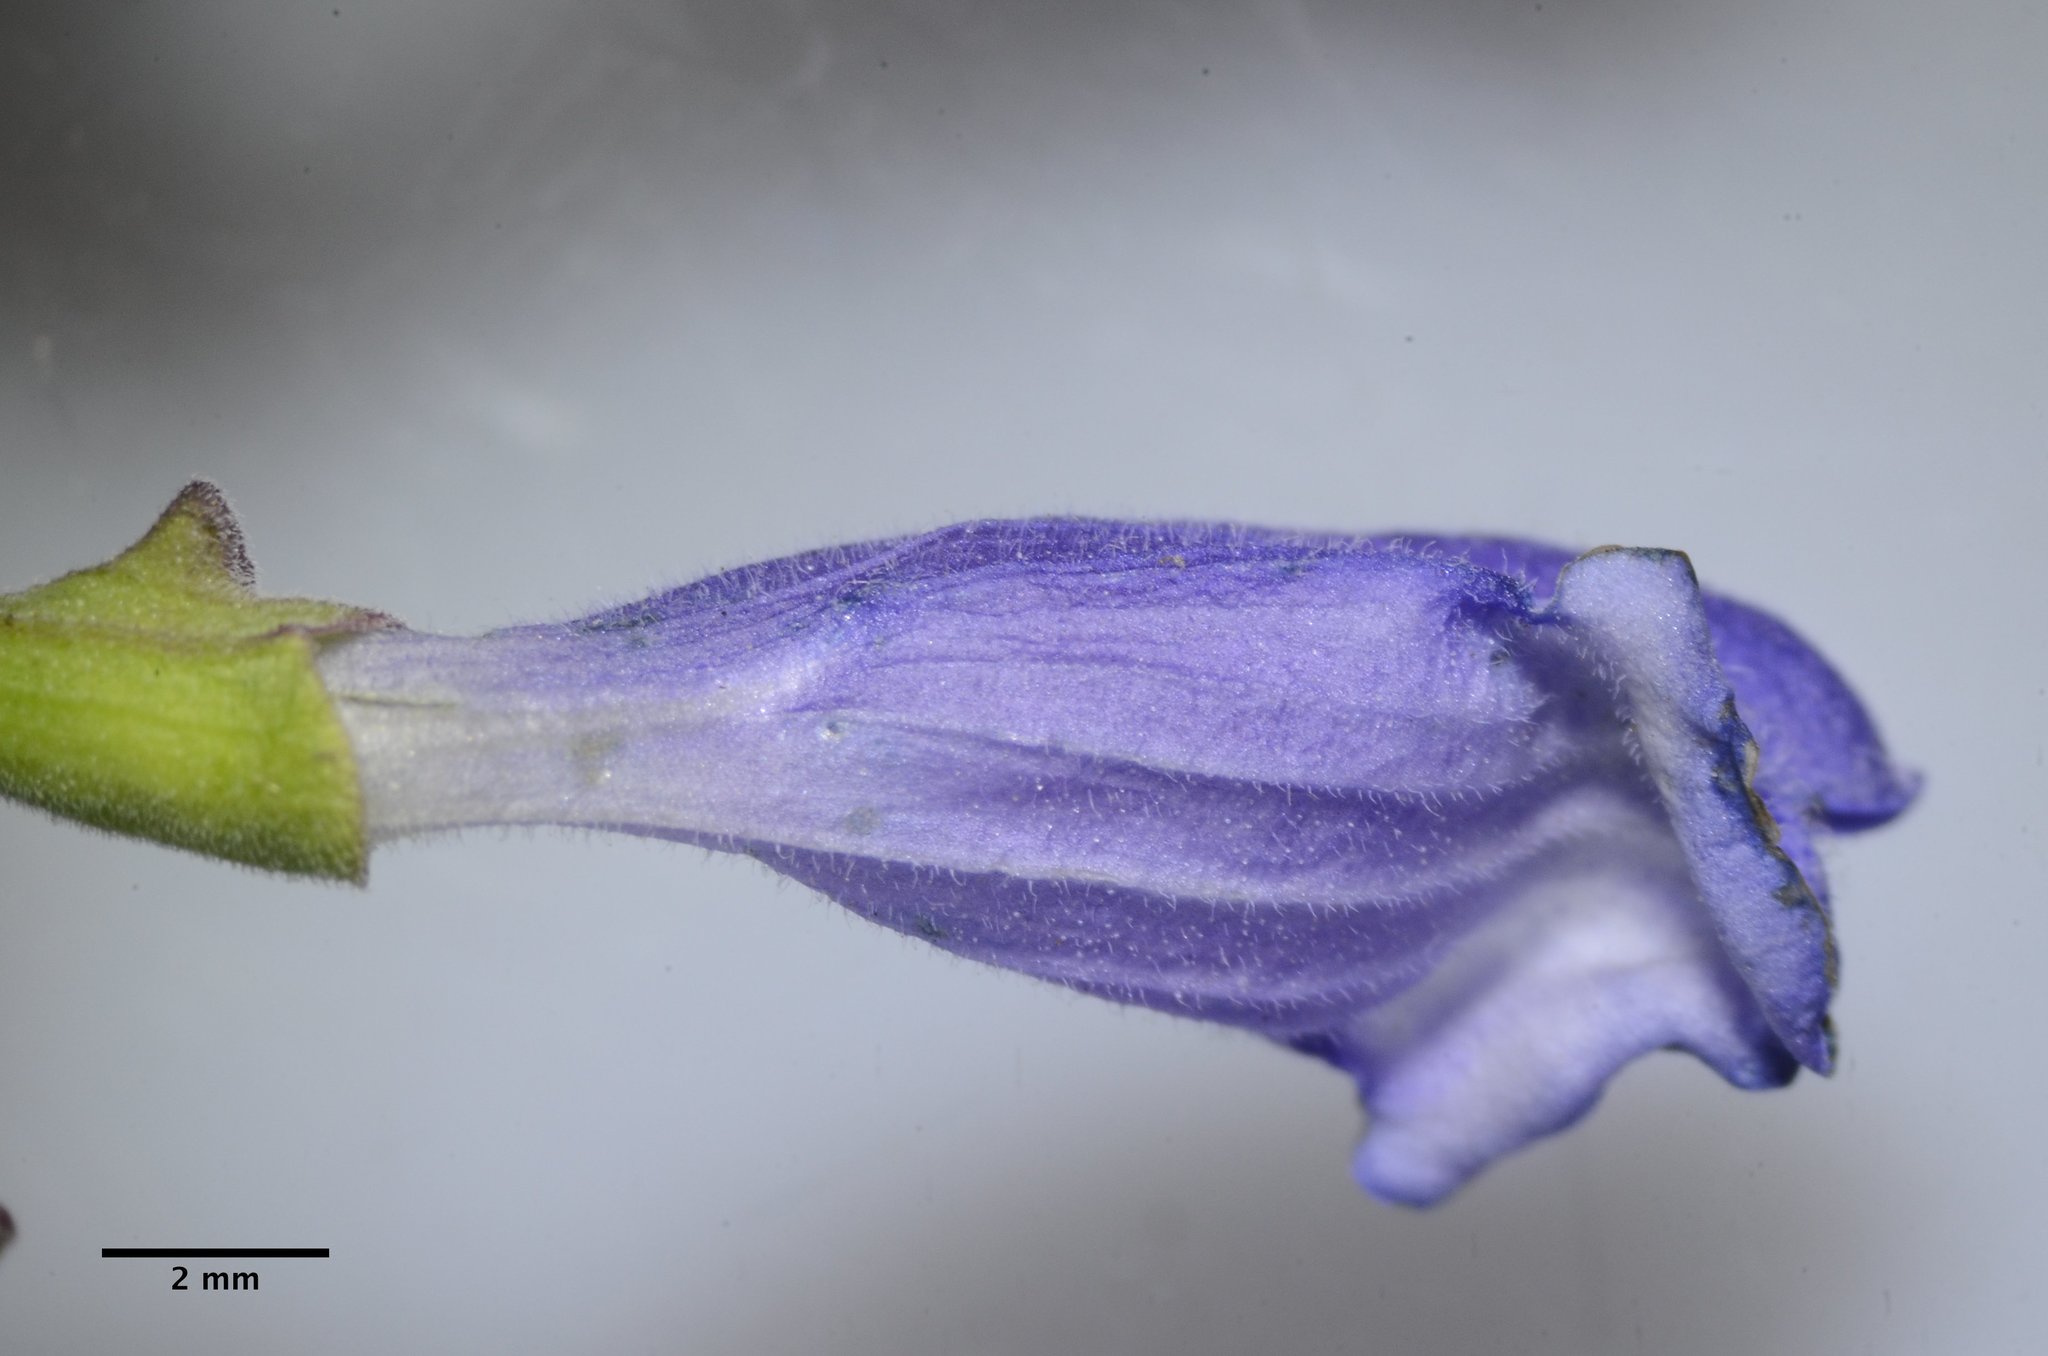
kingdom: Plantae
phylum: Tracheophyta
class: Magnoliopsida
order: Lamiales
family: Lamiaceae
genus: Scutellaria
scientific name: Scutellaria antirrhinoides
